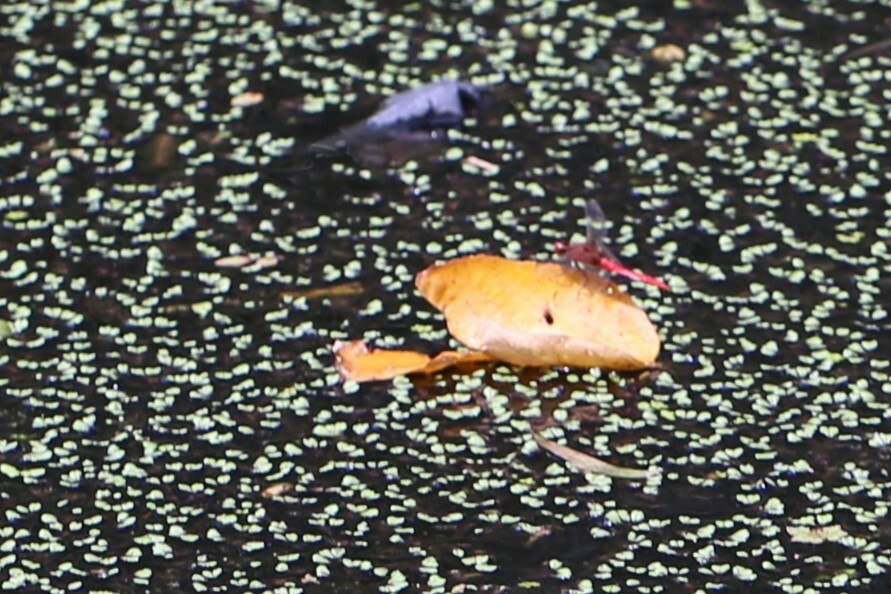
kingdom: Animalia
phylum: Arthropoda
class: Insecta
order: Odonata
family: Libellulidae
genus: Rhodothemis
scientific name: Rhodothemis lieftincki
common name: Red arrow
